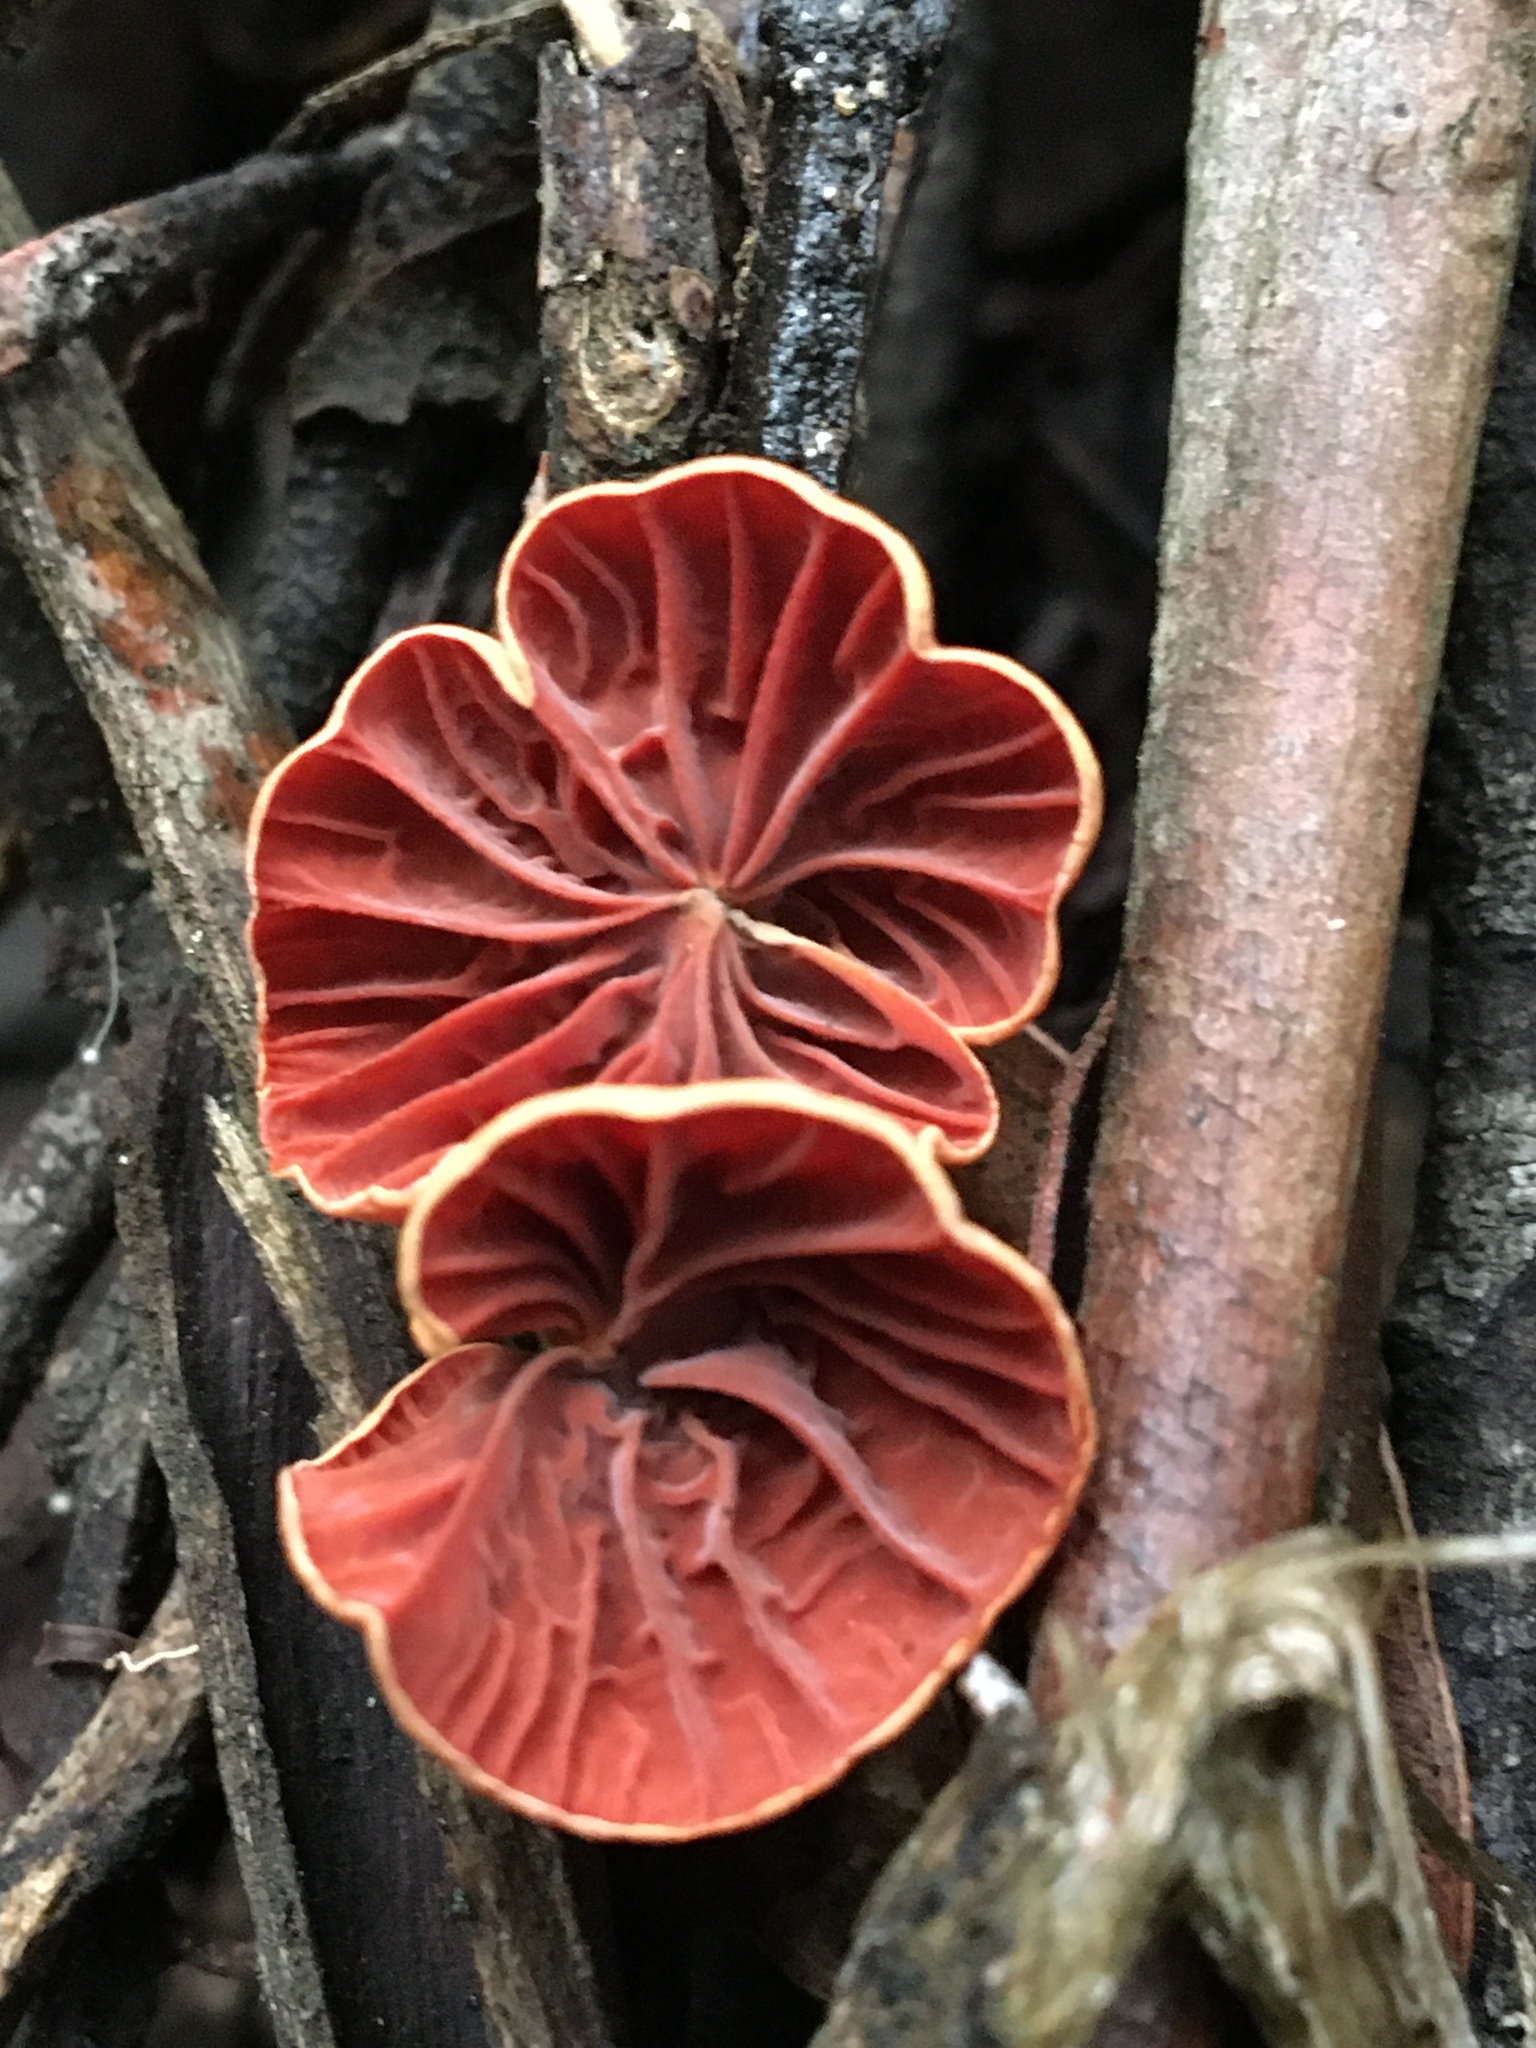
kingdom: Fungi
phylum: Basidiomycota
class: Agaricomycetes
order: Agaricales
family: Omphalotaceae
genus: Anthracophyllum
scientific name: Anthracophyllum archeri
